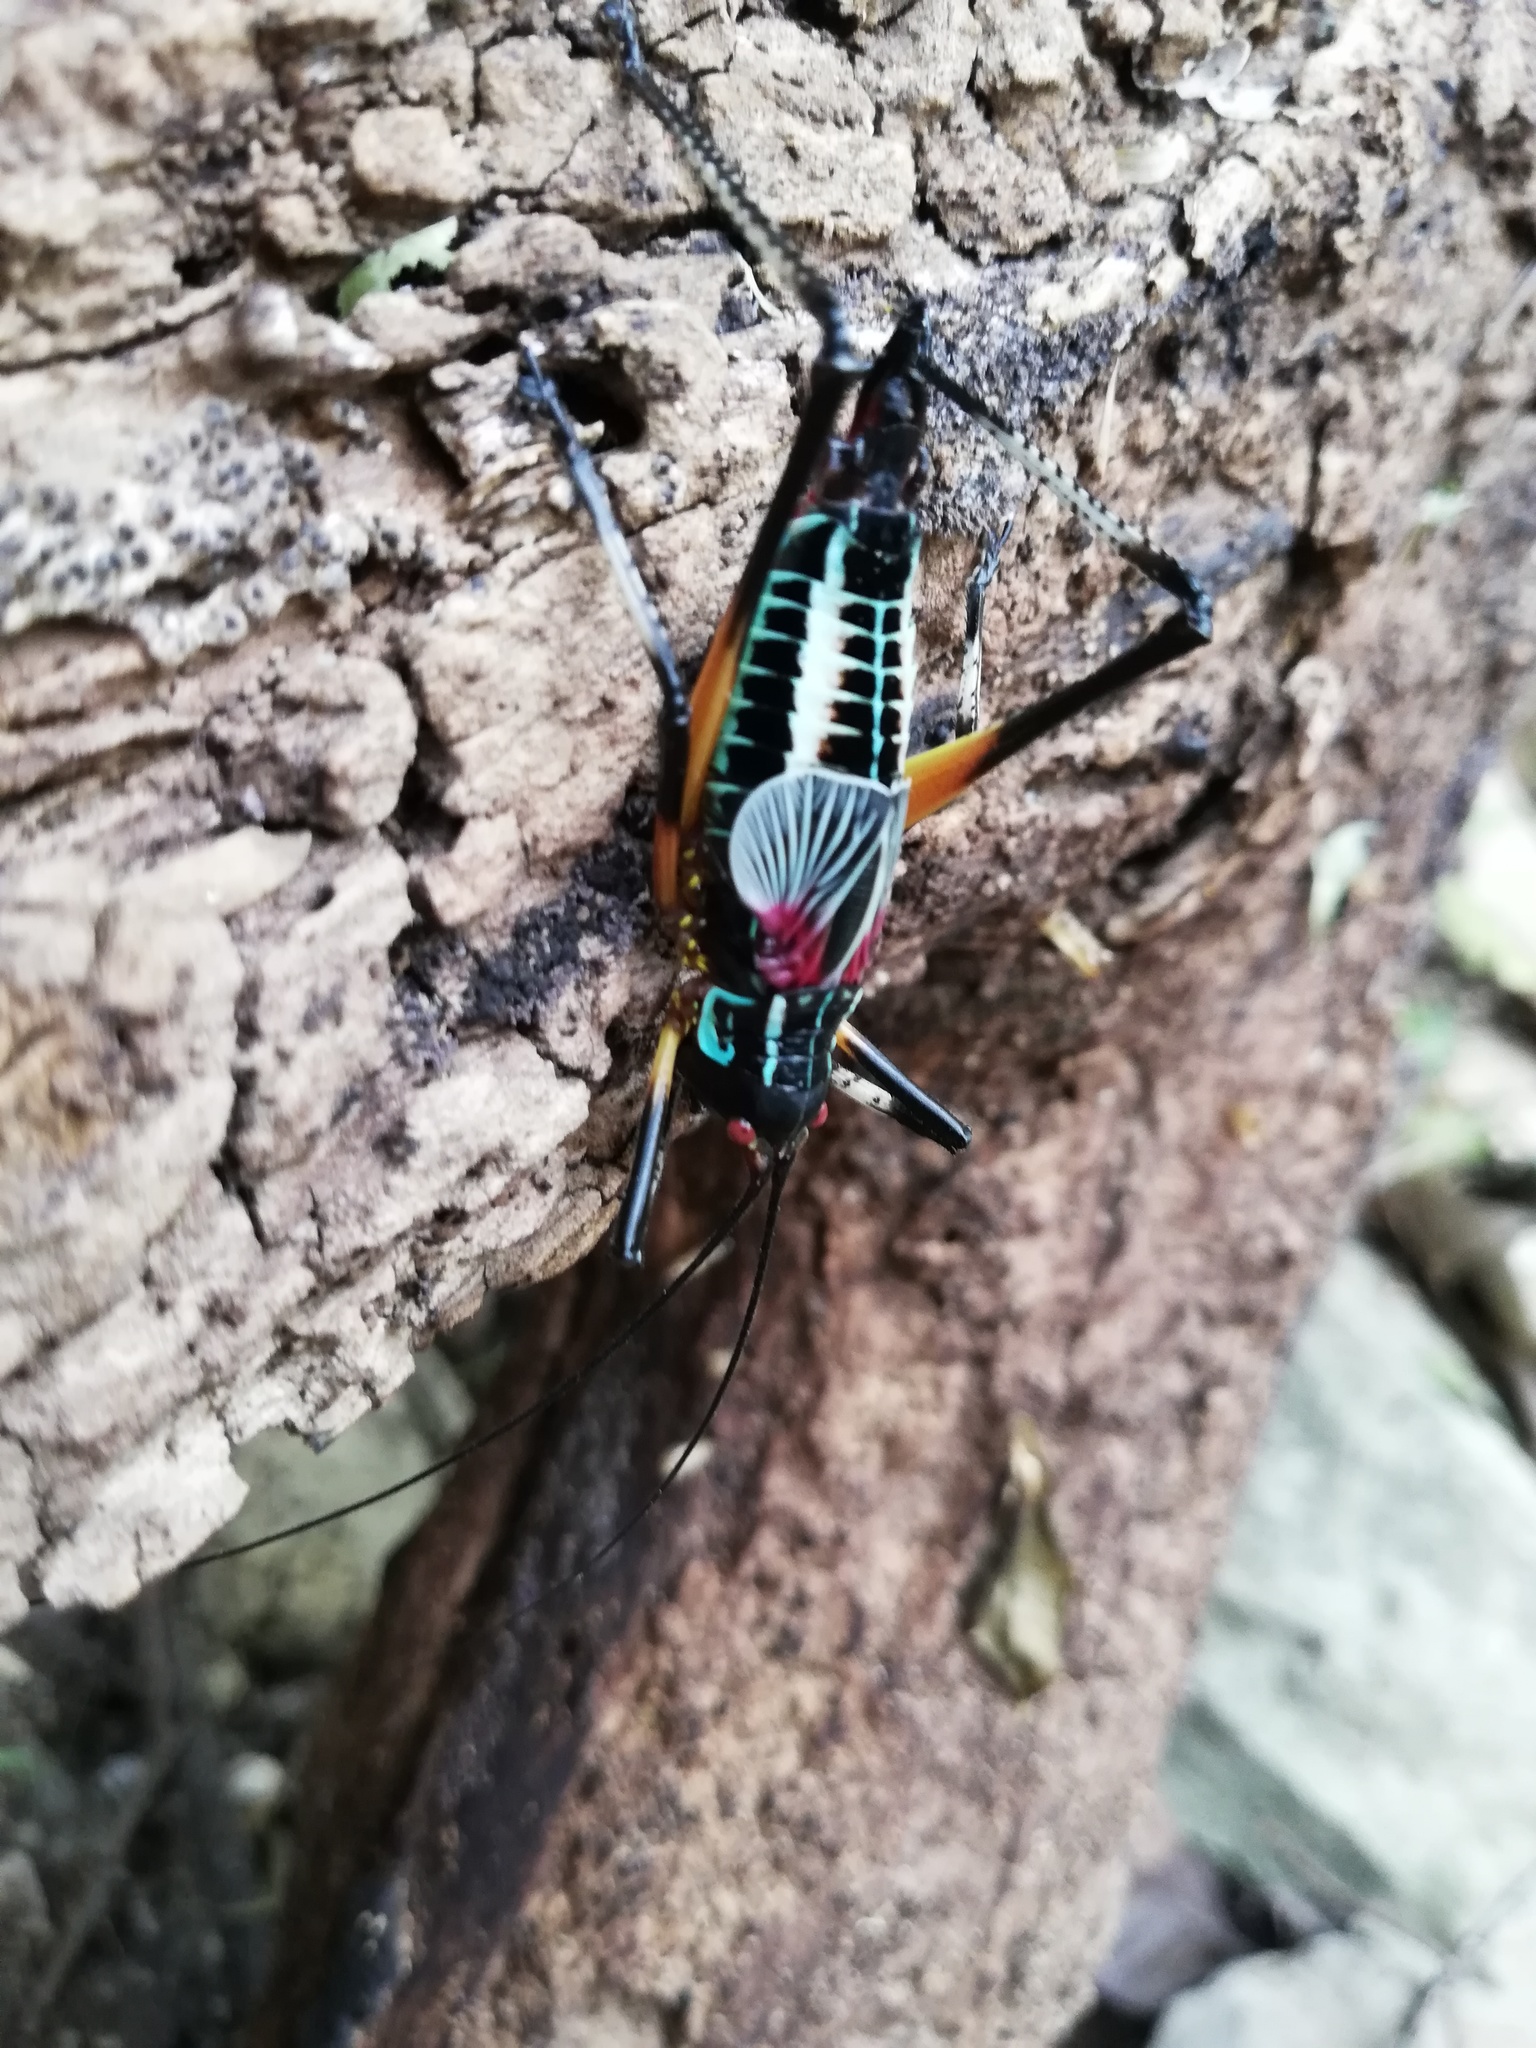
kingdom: Animalia
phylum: Arthropoda
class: Insecta
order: Orthoptera
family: Tettigoniidae
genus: Pterophylla
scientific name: Pterophylla beltrani
